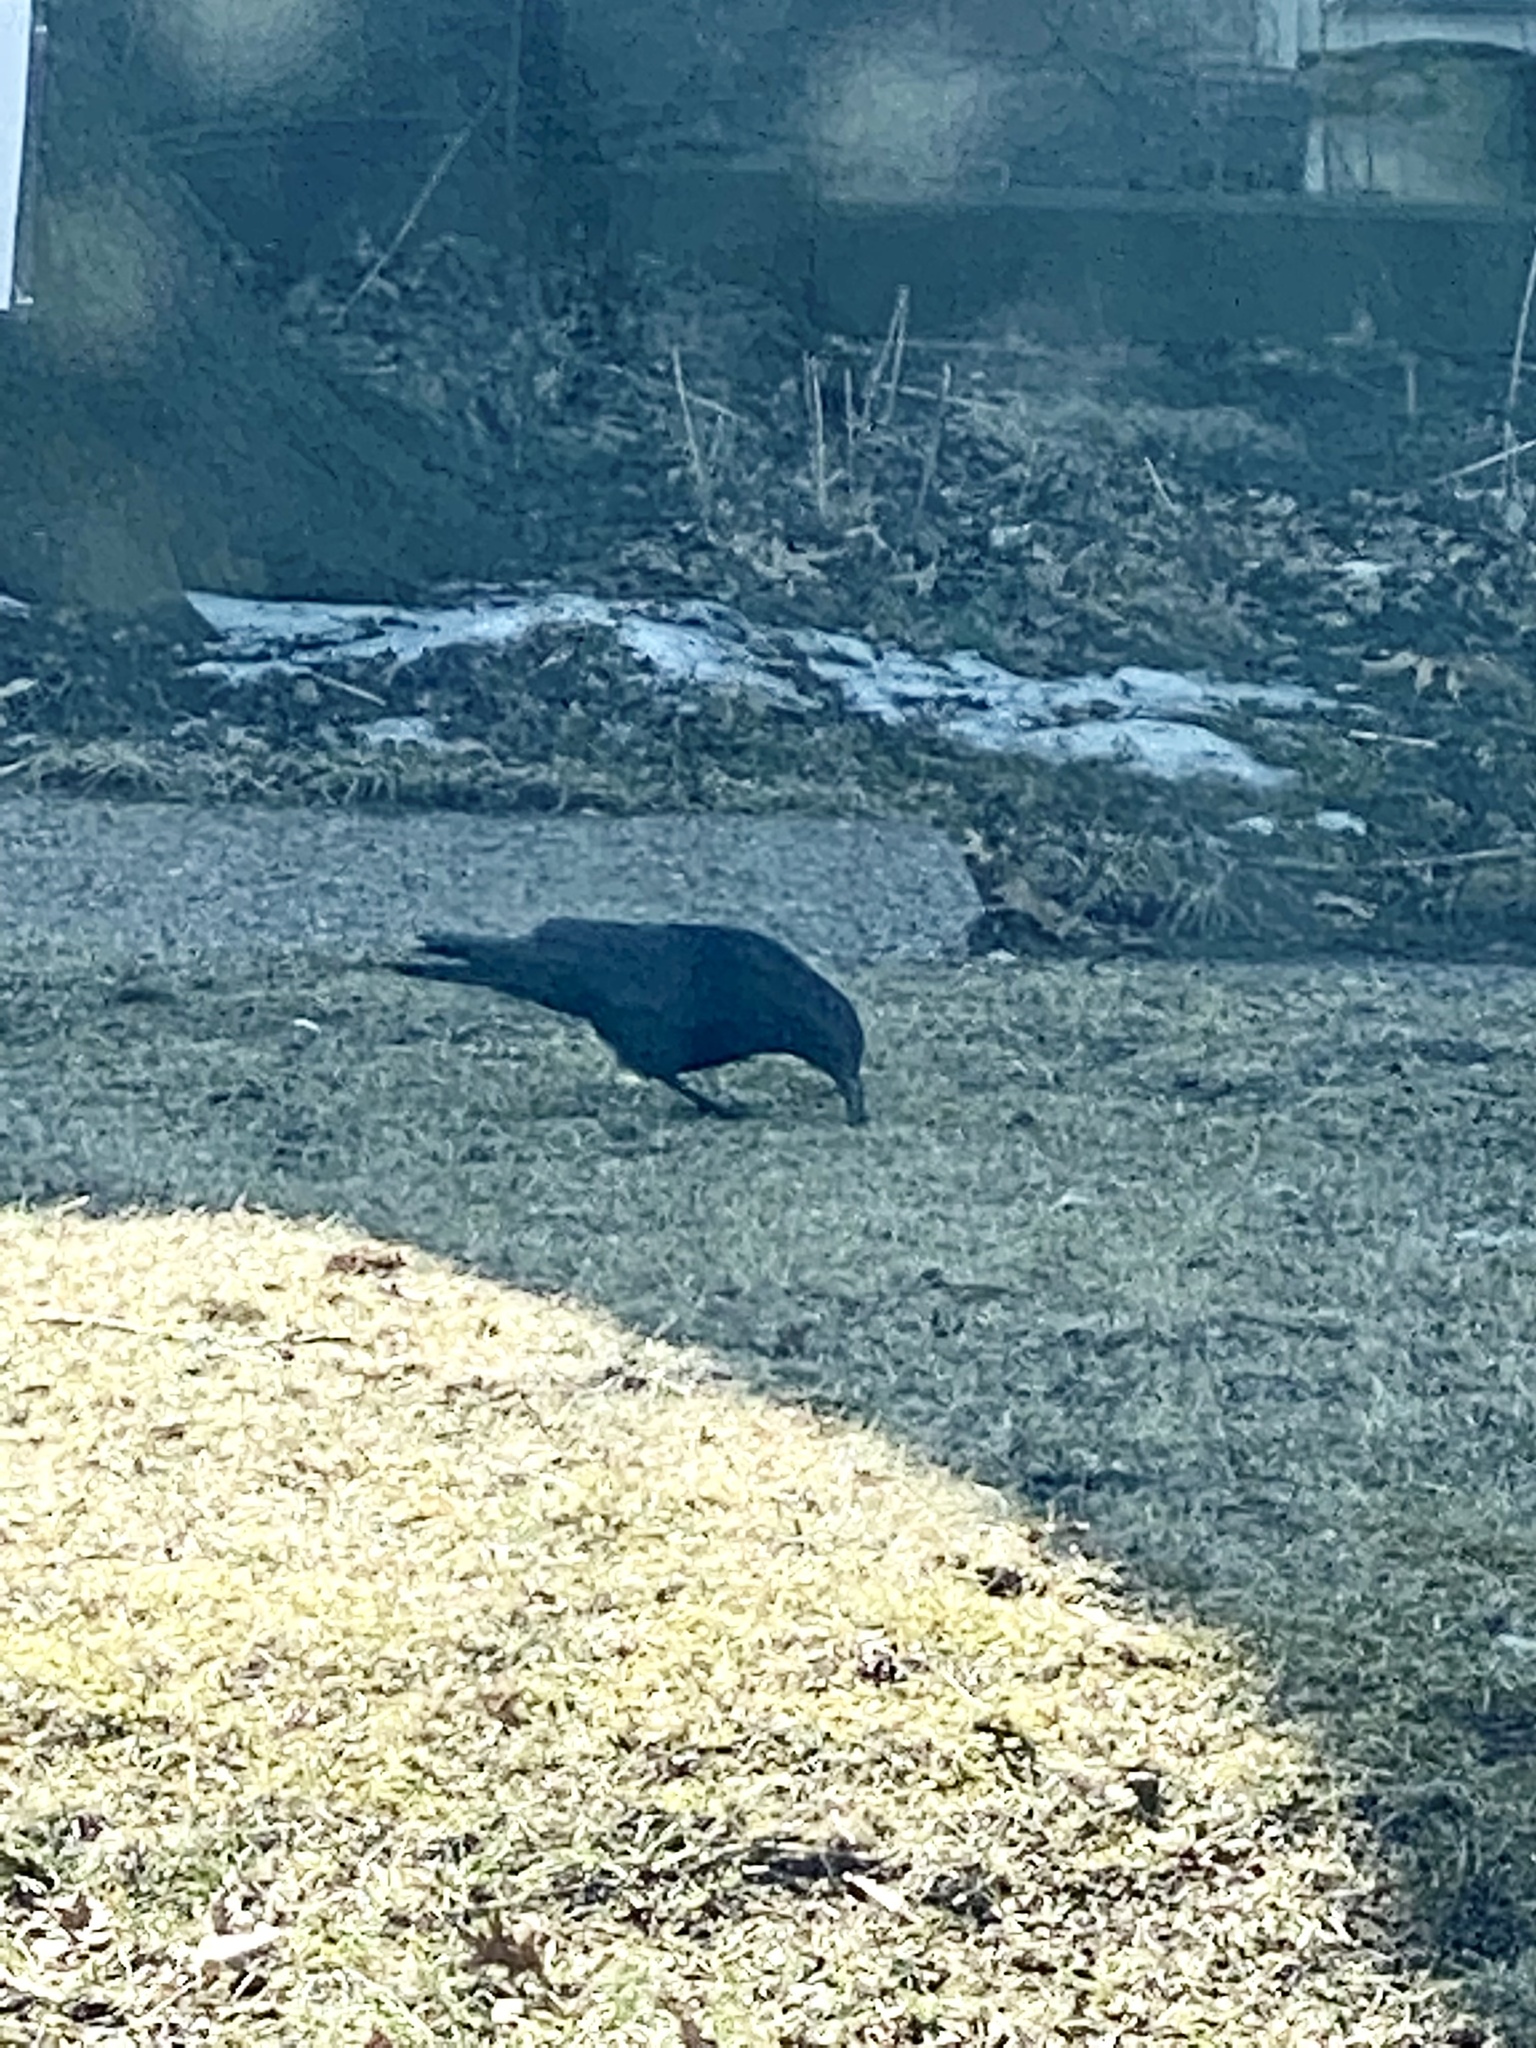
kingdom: Animalia
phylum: Chordata
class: Aves
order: Passeriformes
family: Corvidae
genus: Corvus
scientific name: Corvus ossifragus
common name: Fish crow
